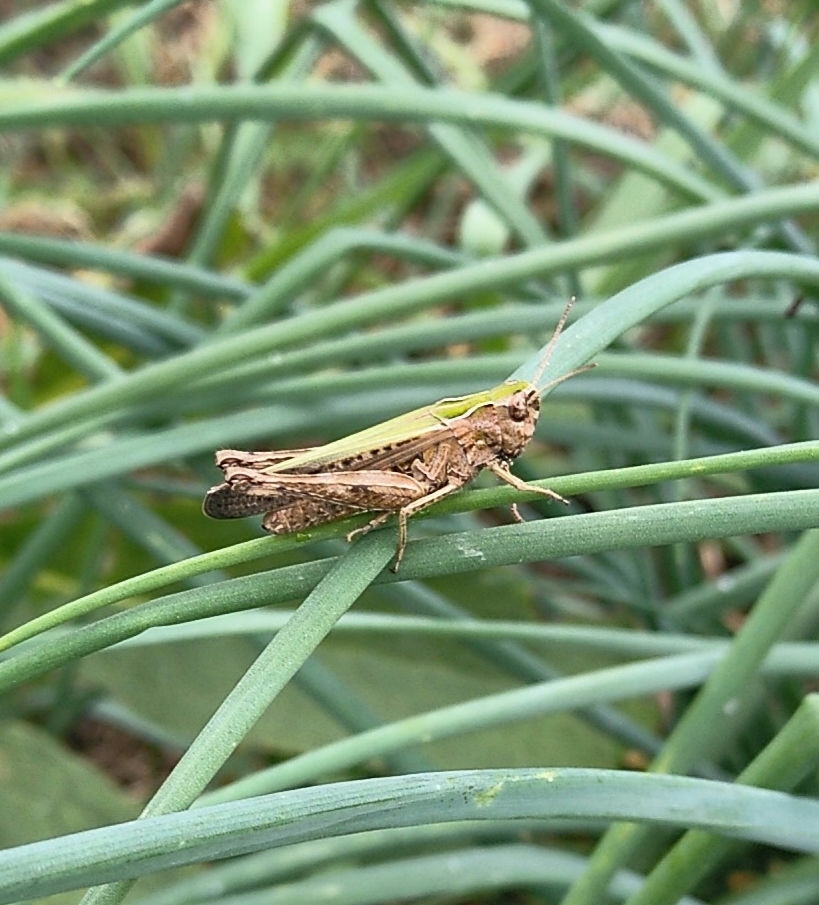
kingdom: Animalia
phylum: Arthropoda
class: Insecta
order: Orthoptera
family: Acrididae
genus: Omocestus
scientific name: Omocestus rufipes
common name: Woodland grasshopper
